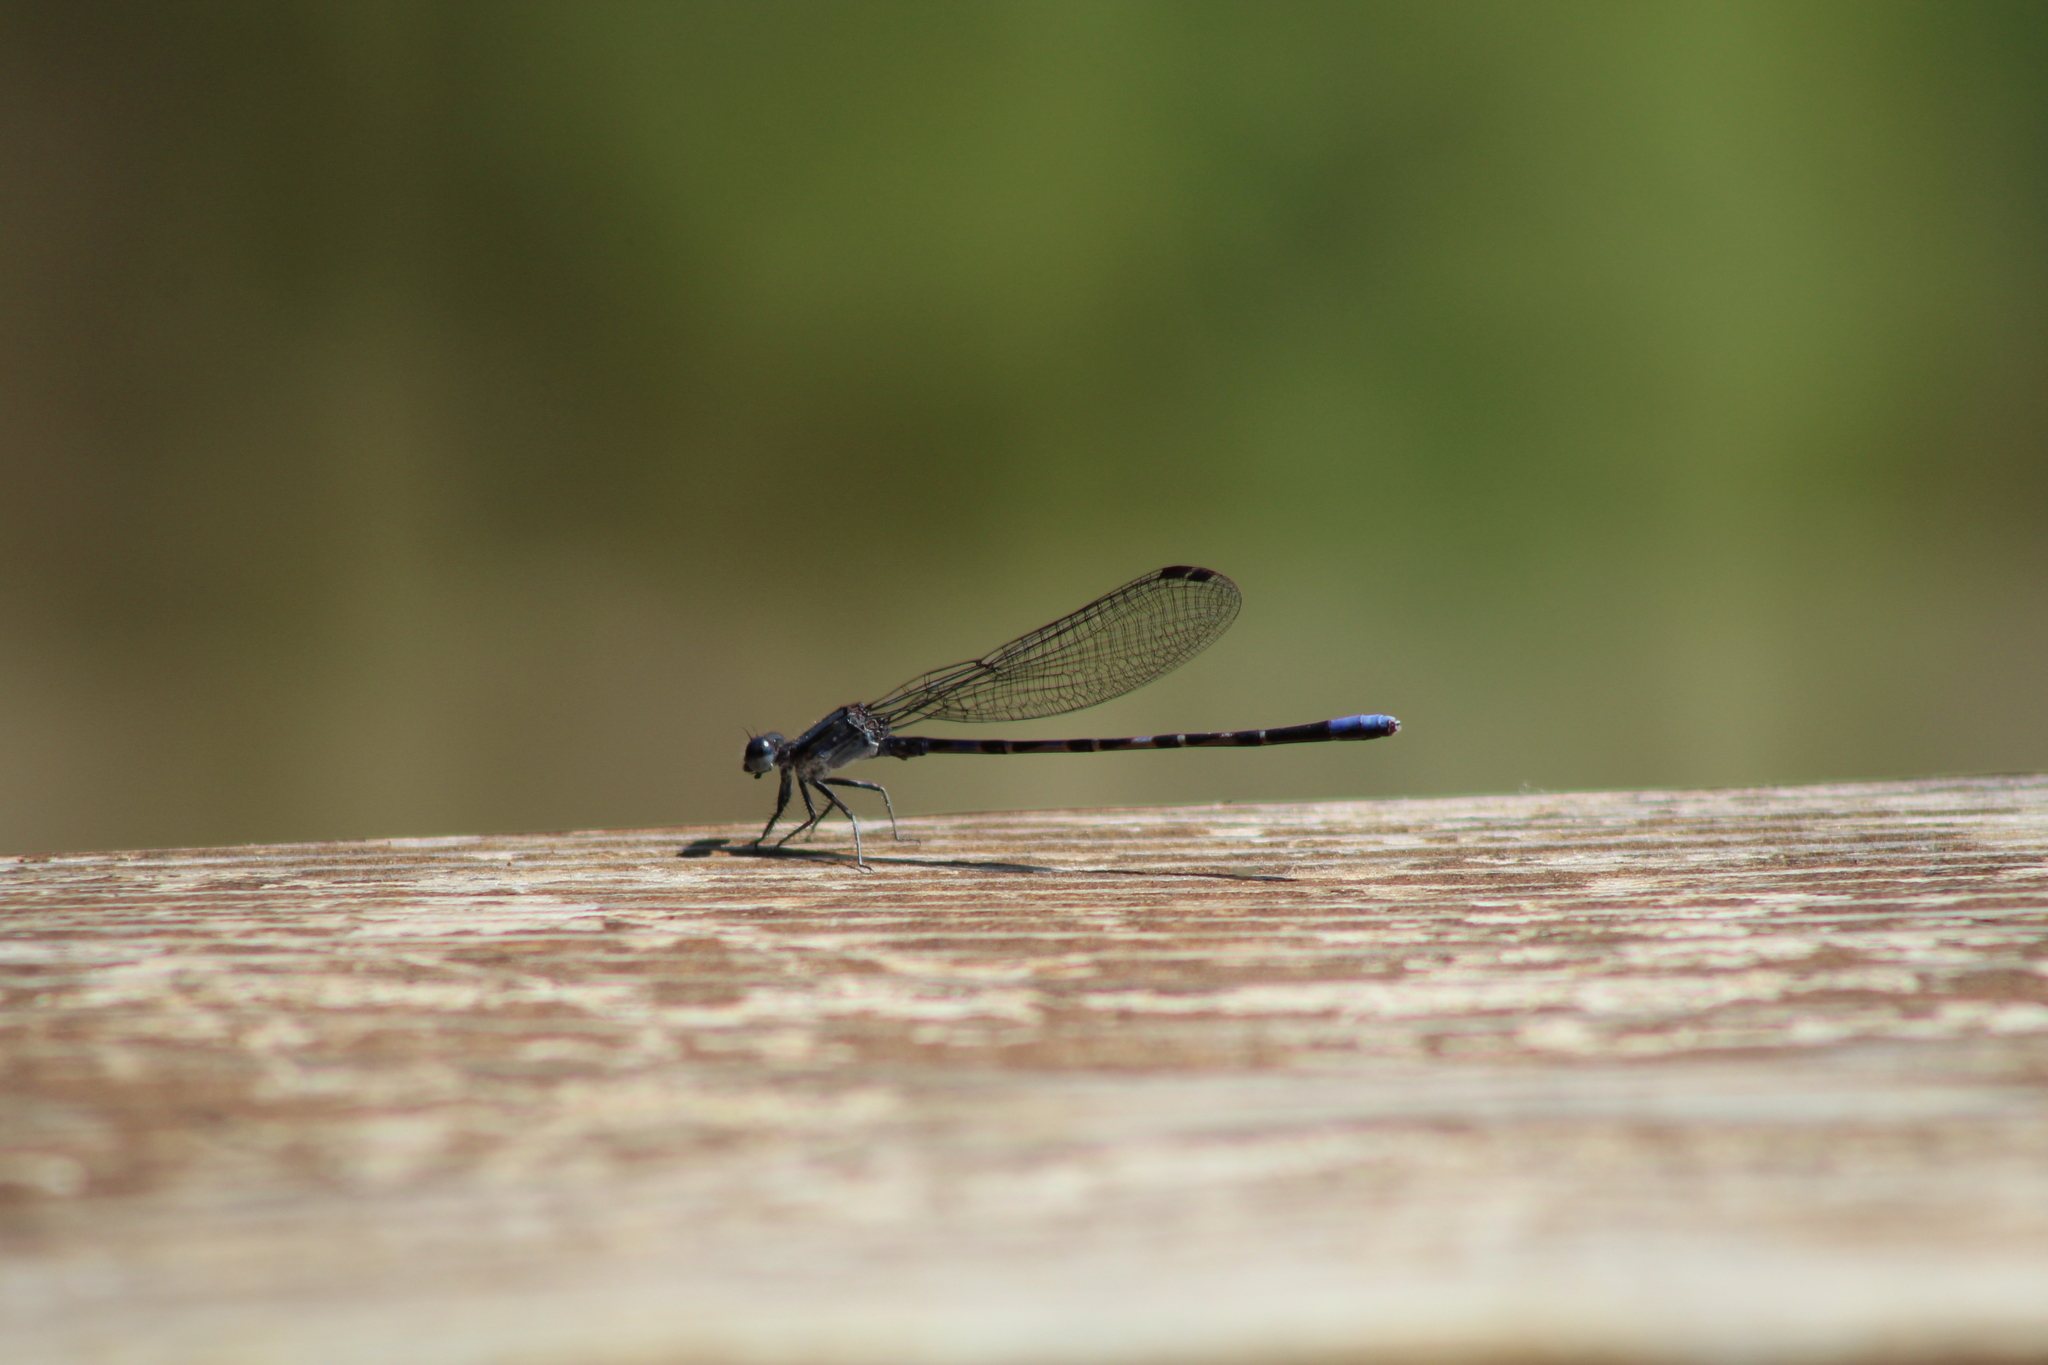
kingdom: Animalia
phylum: Arthropoda
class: Insecta
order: Odonata
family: Coenagrionidae
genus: Argia
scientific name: Argia immunda
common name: Kiowa dancer
